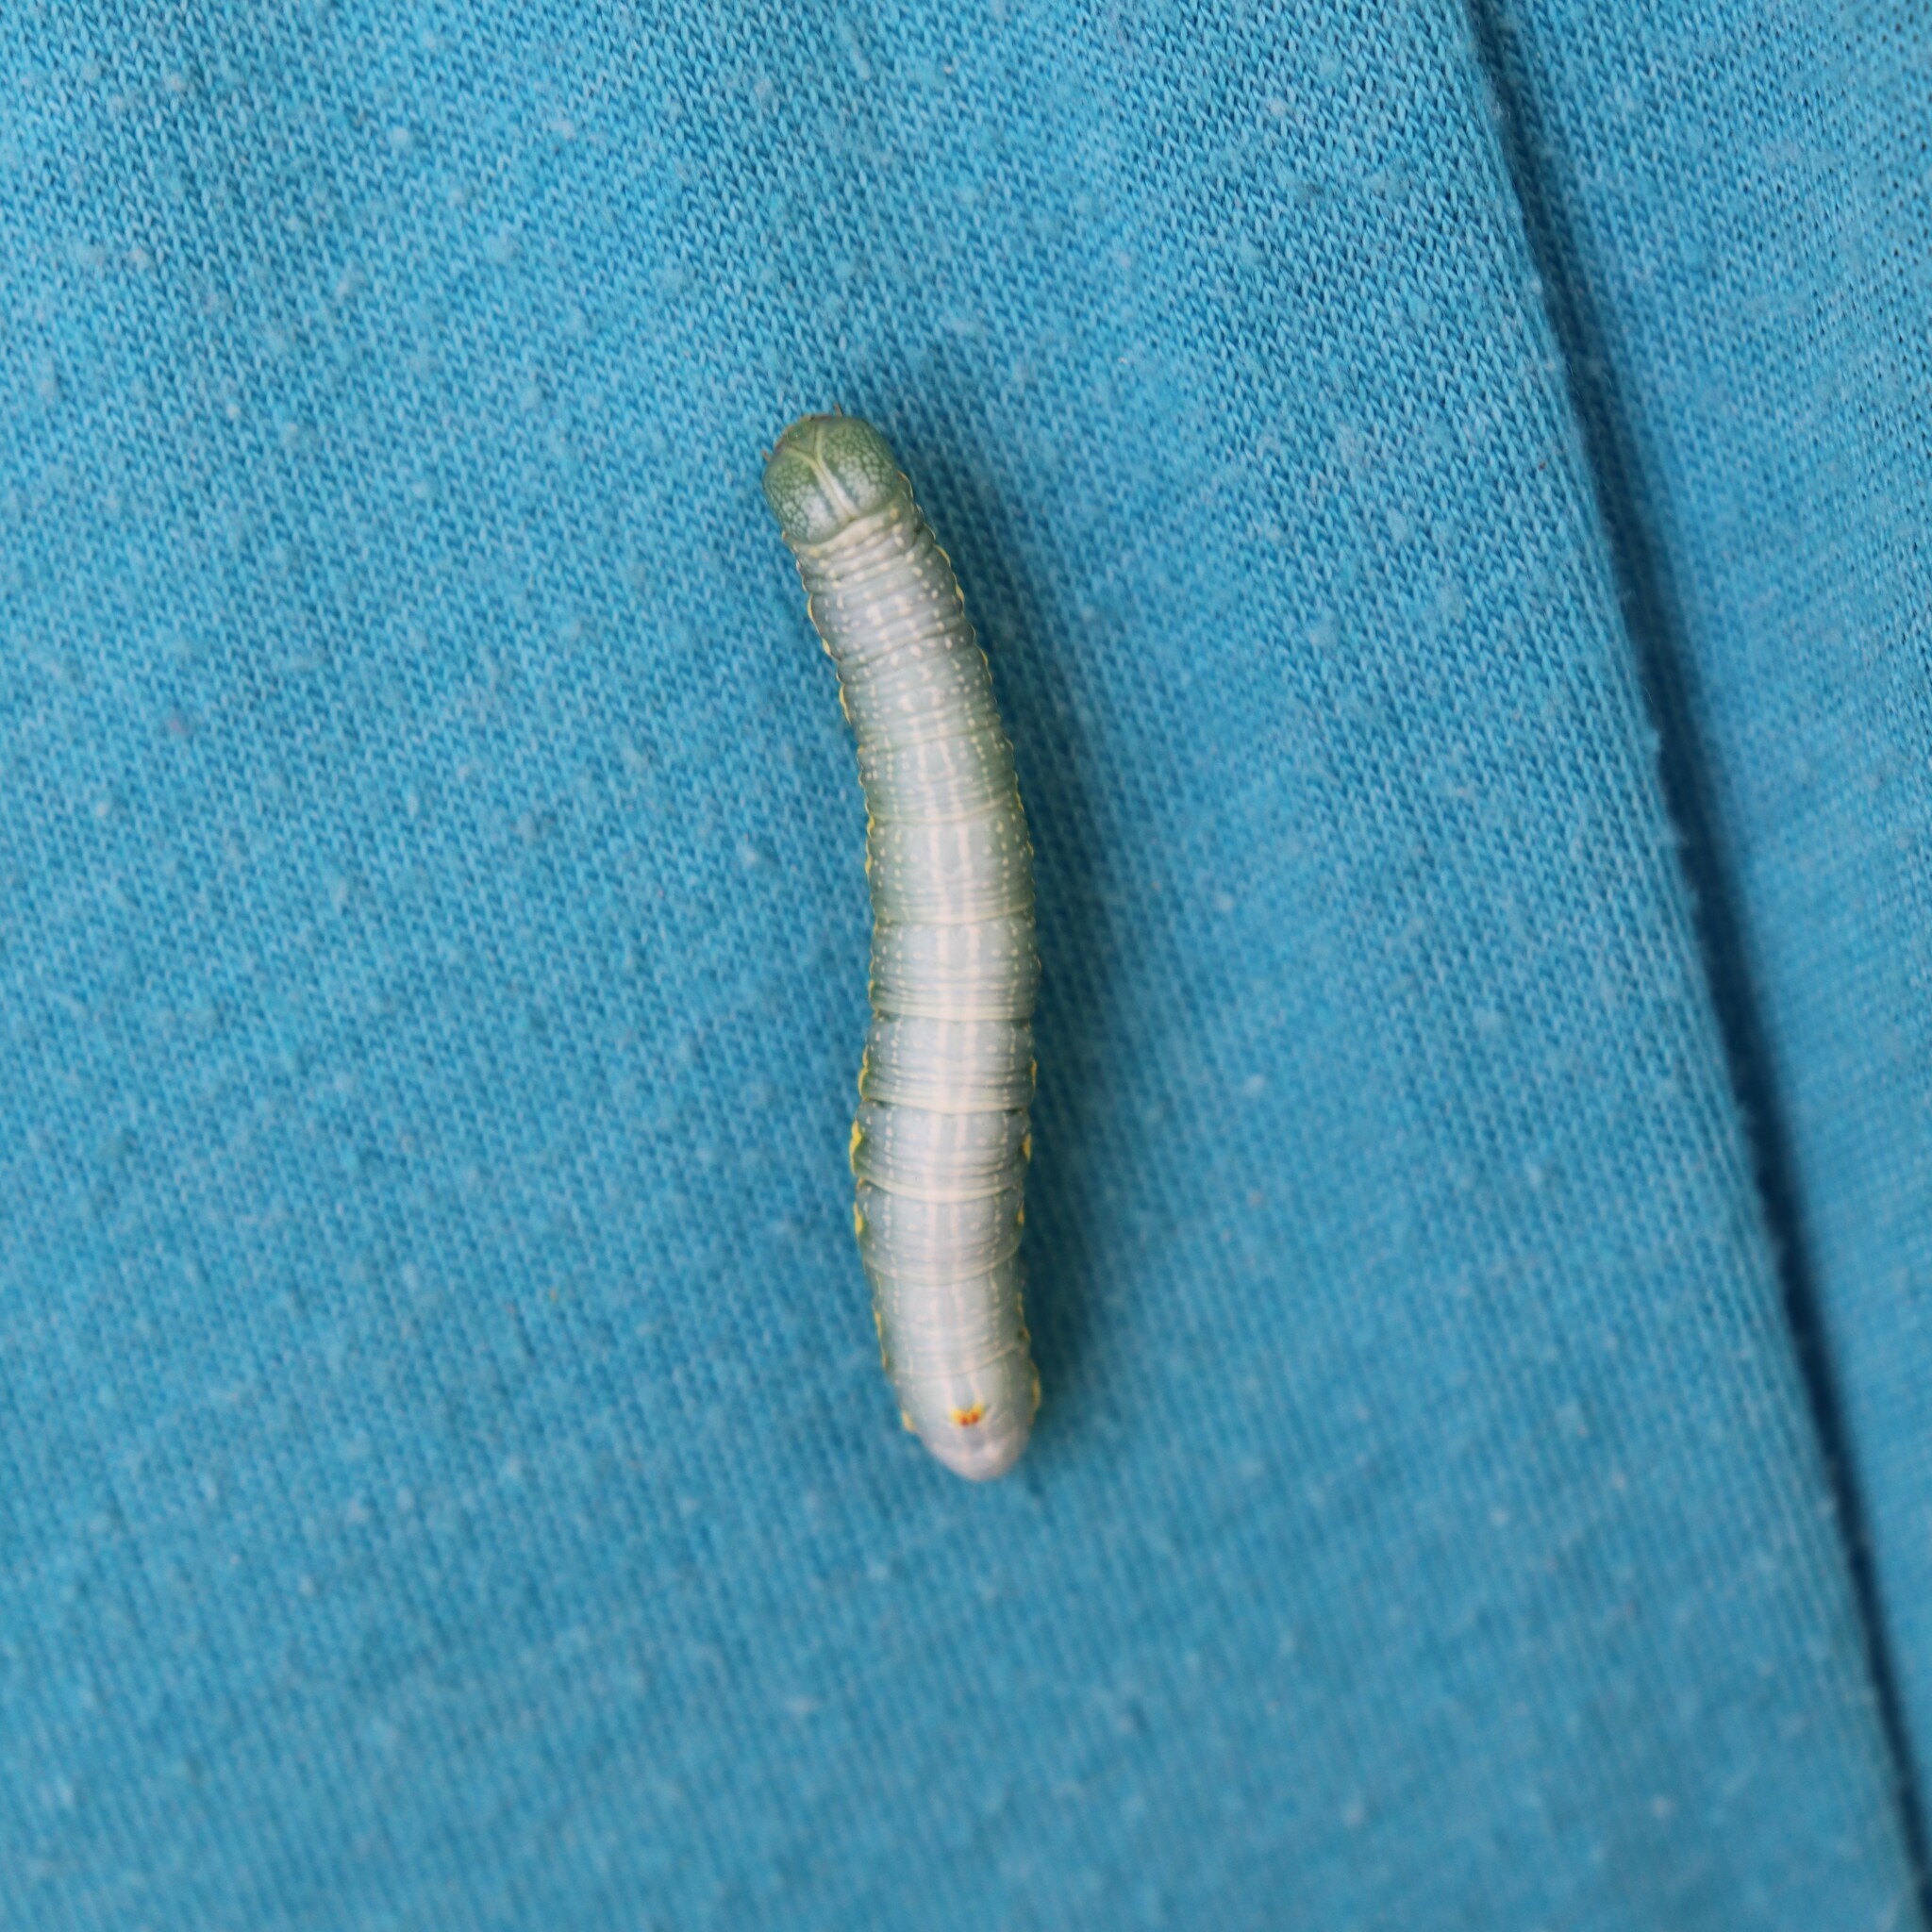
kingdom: Animalia
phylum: Arthropoda
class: Insecta
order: Lepidoptera
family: Notodontidae
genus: Paraeschra
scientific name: Paraeschra georgica
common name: Georgian prominent
